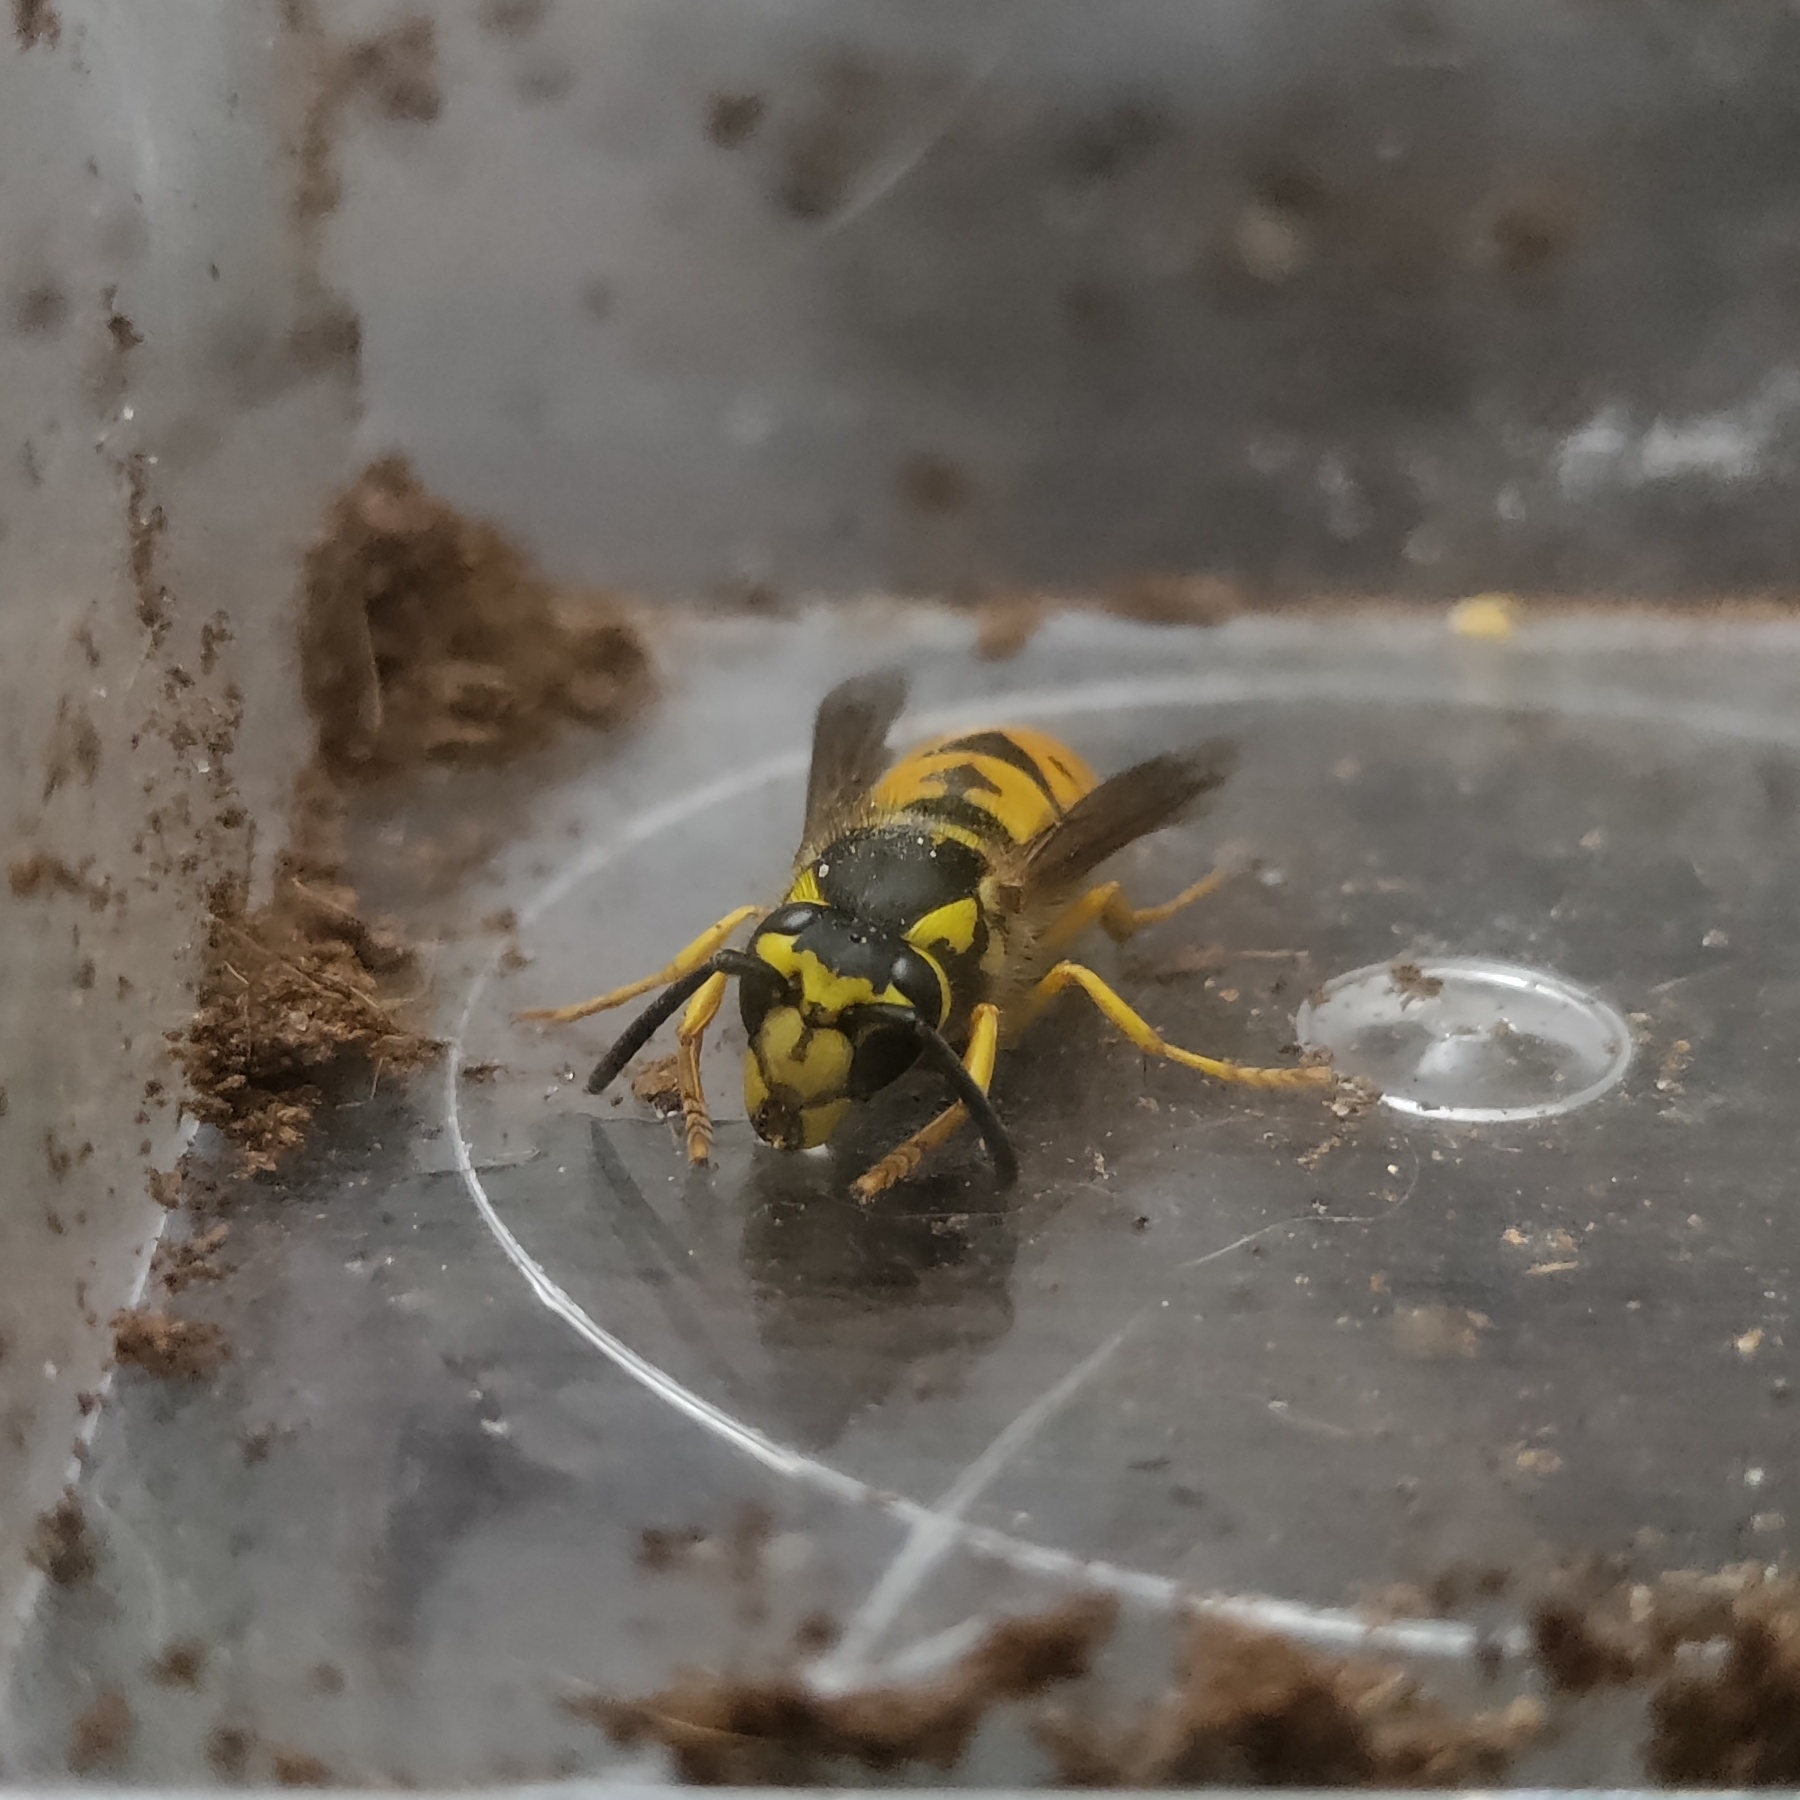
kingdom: Animalia
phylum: Arthropoda
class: Insecta
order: Hymenoptera
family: Vespidae
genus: Vespula
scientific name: Vespula maculifrons
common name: Eastern yellowjacket
